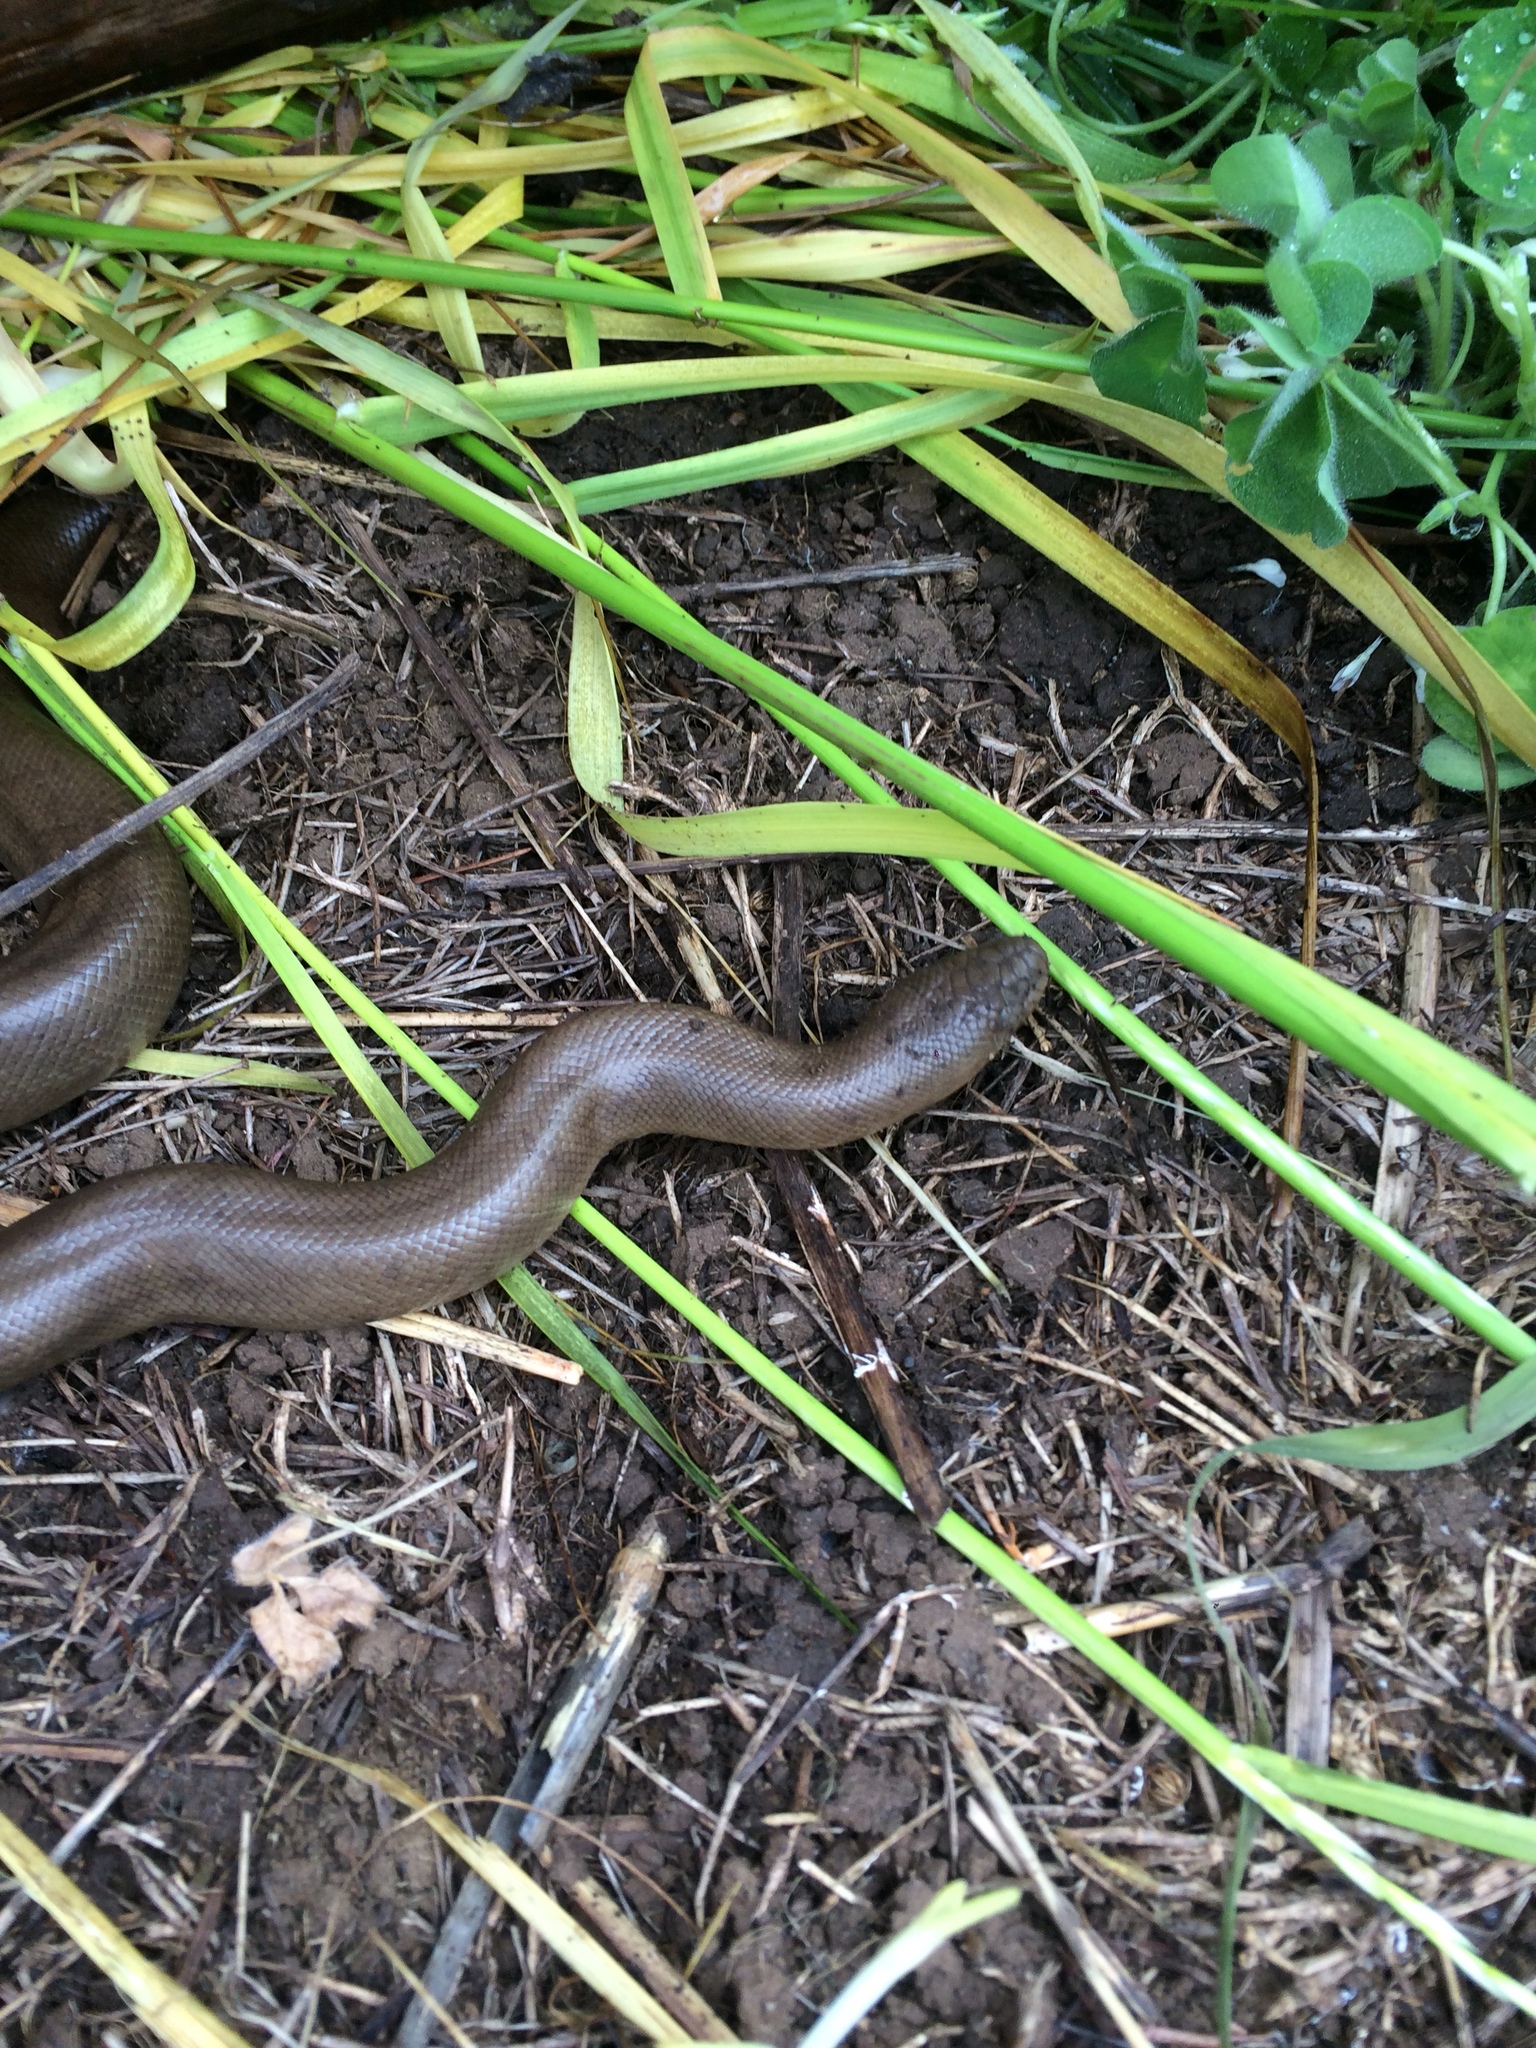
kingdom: Animalia
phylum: Chordata
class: Squamata
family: Boidae
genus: Charina
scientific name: Charina bottae
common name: Northern rubber boa
